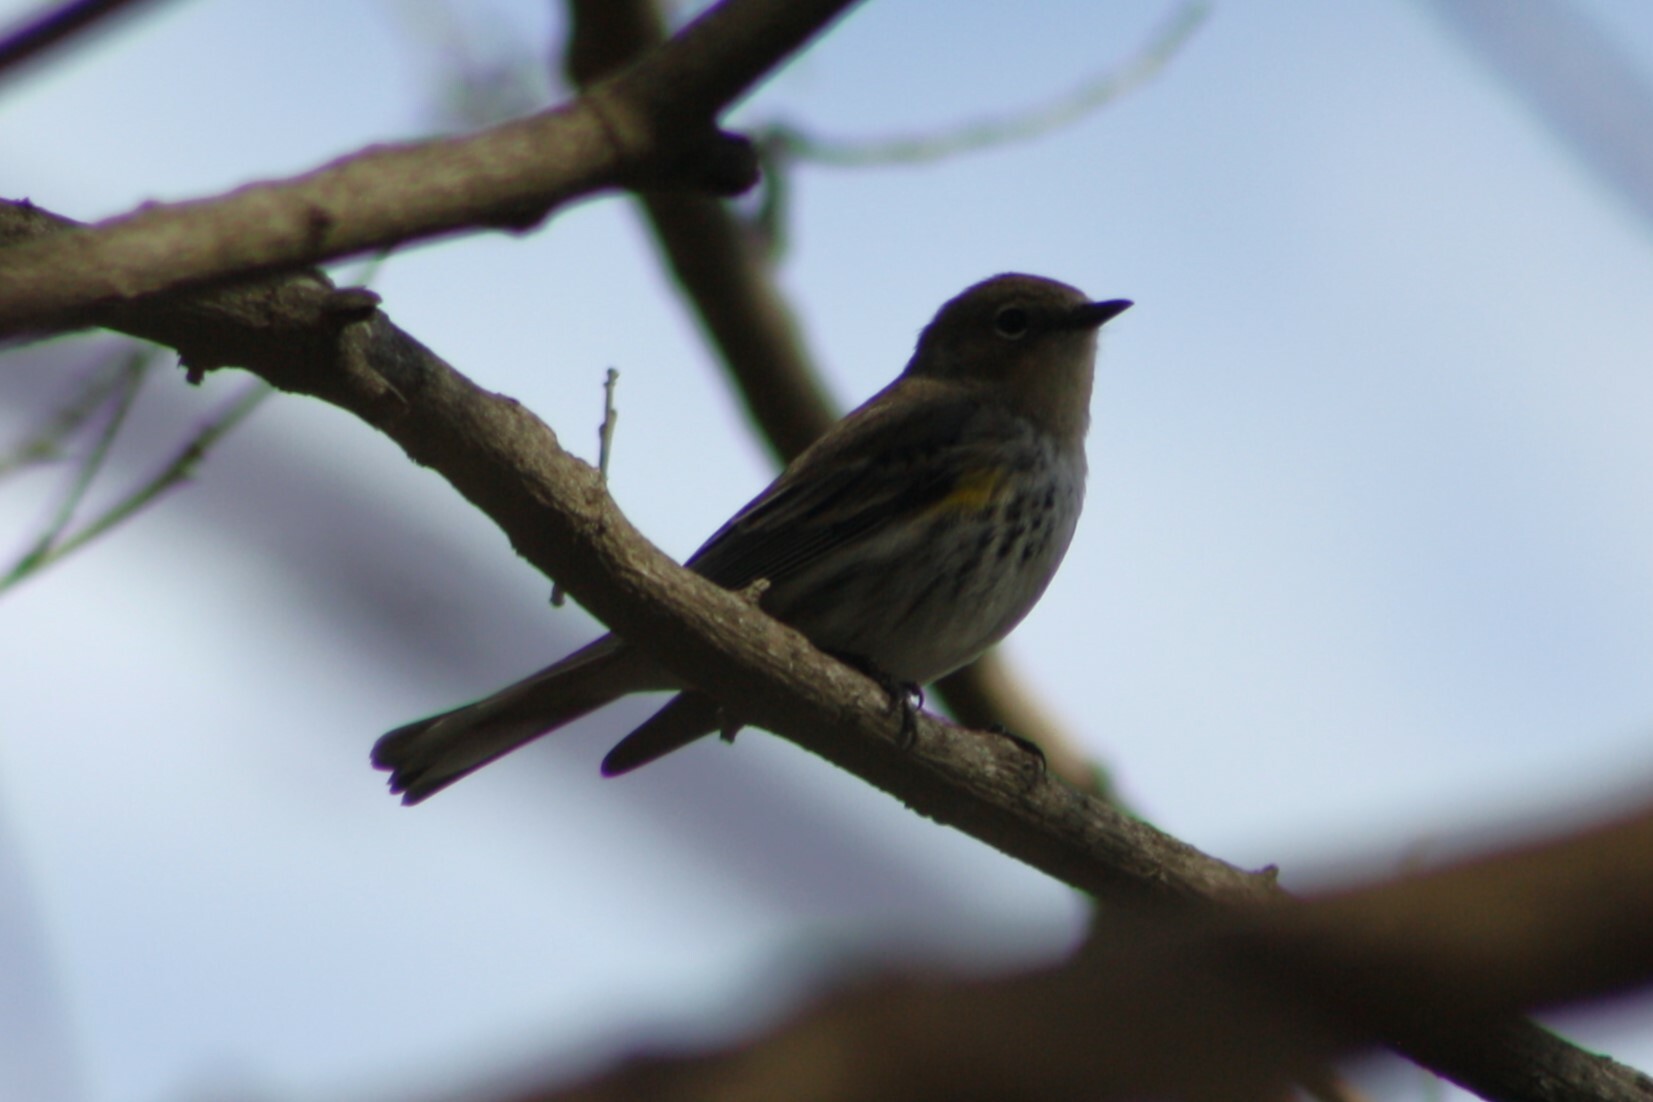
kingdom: Animalia
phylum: Chordata
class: Aves
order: Passeriformes
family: Parulidae
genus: Setophaga
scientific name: Setophaga coronata
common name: Myrtle warbler
